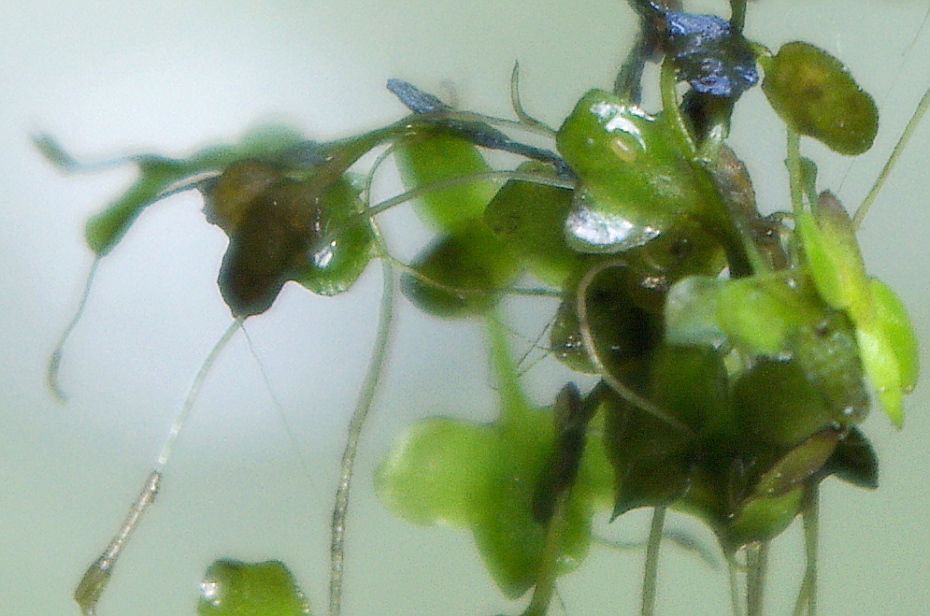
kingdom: Plantae
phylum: Tracheophyta
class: Liliopsida
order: Alismatales
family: Araceae
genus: Lemna
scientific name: Lemna trisulca
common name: Ivy-leaved duckweed
